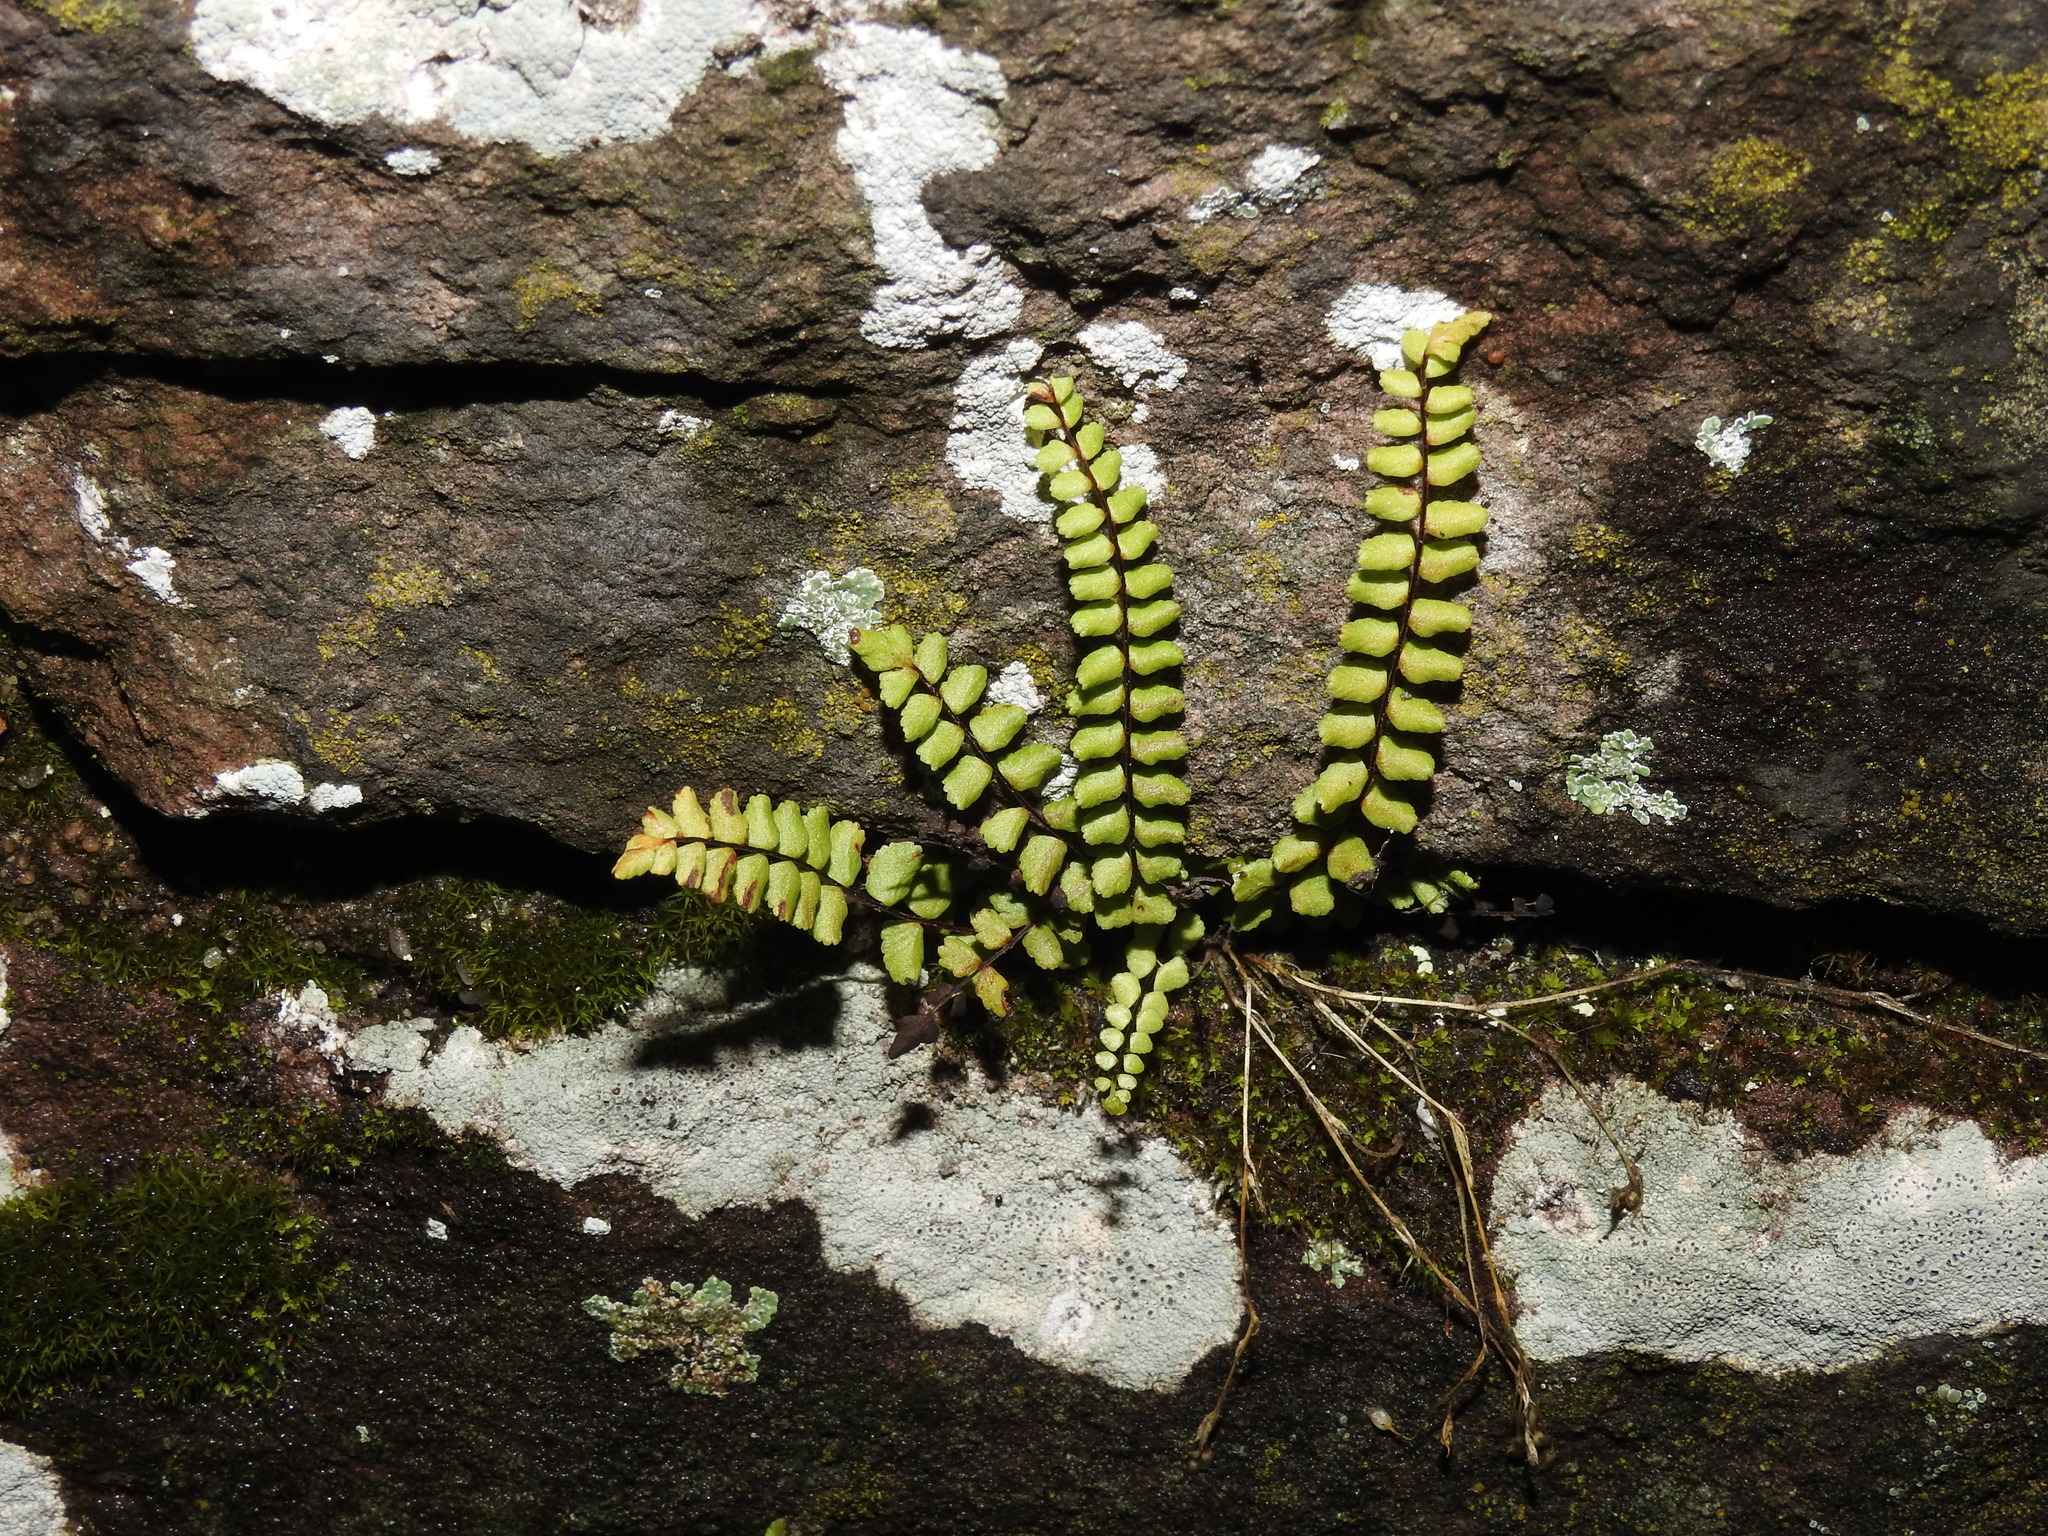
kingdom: Plantae
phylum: Tracheophyta
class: Polypodiopsida
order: Polypodiales
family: Aspleniaceae
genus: Asplenium
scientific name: Asplenium trichomanes
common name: Maidenhair spleenwort
